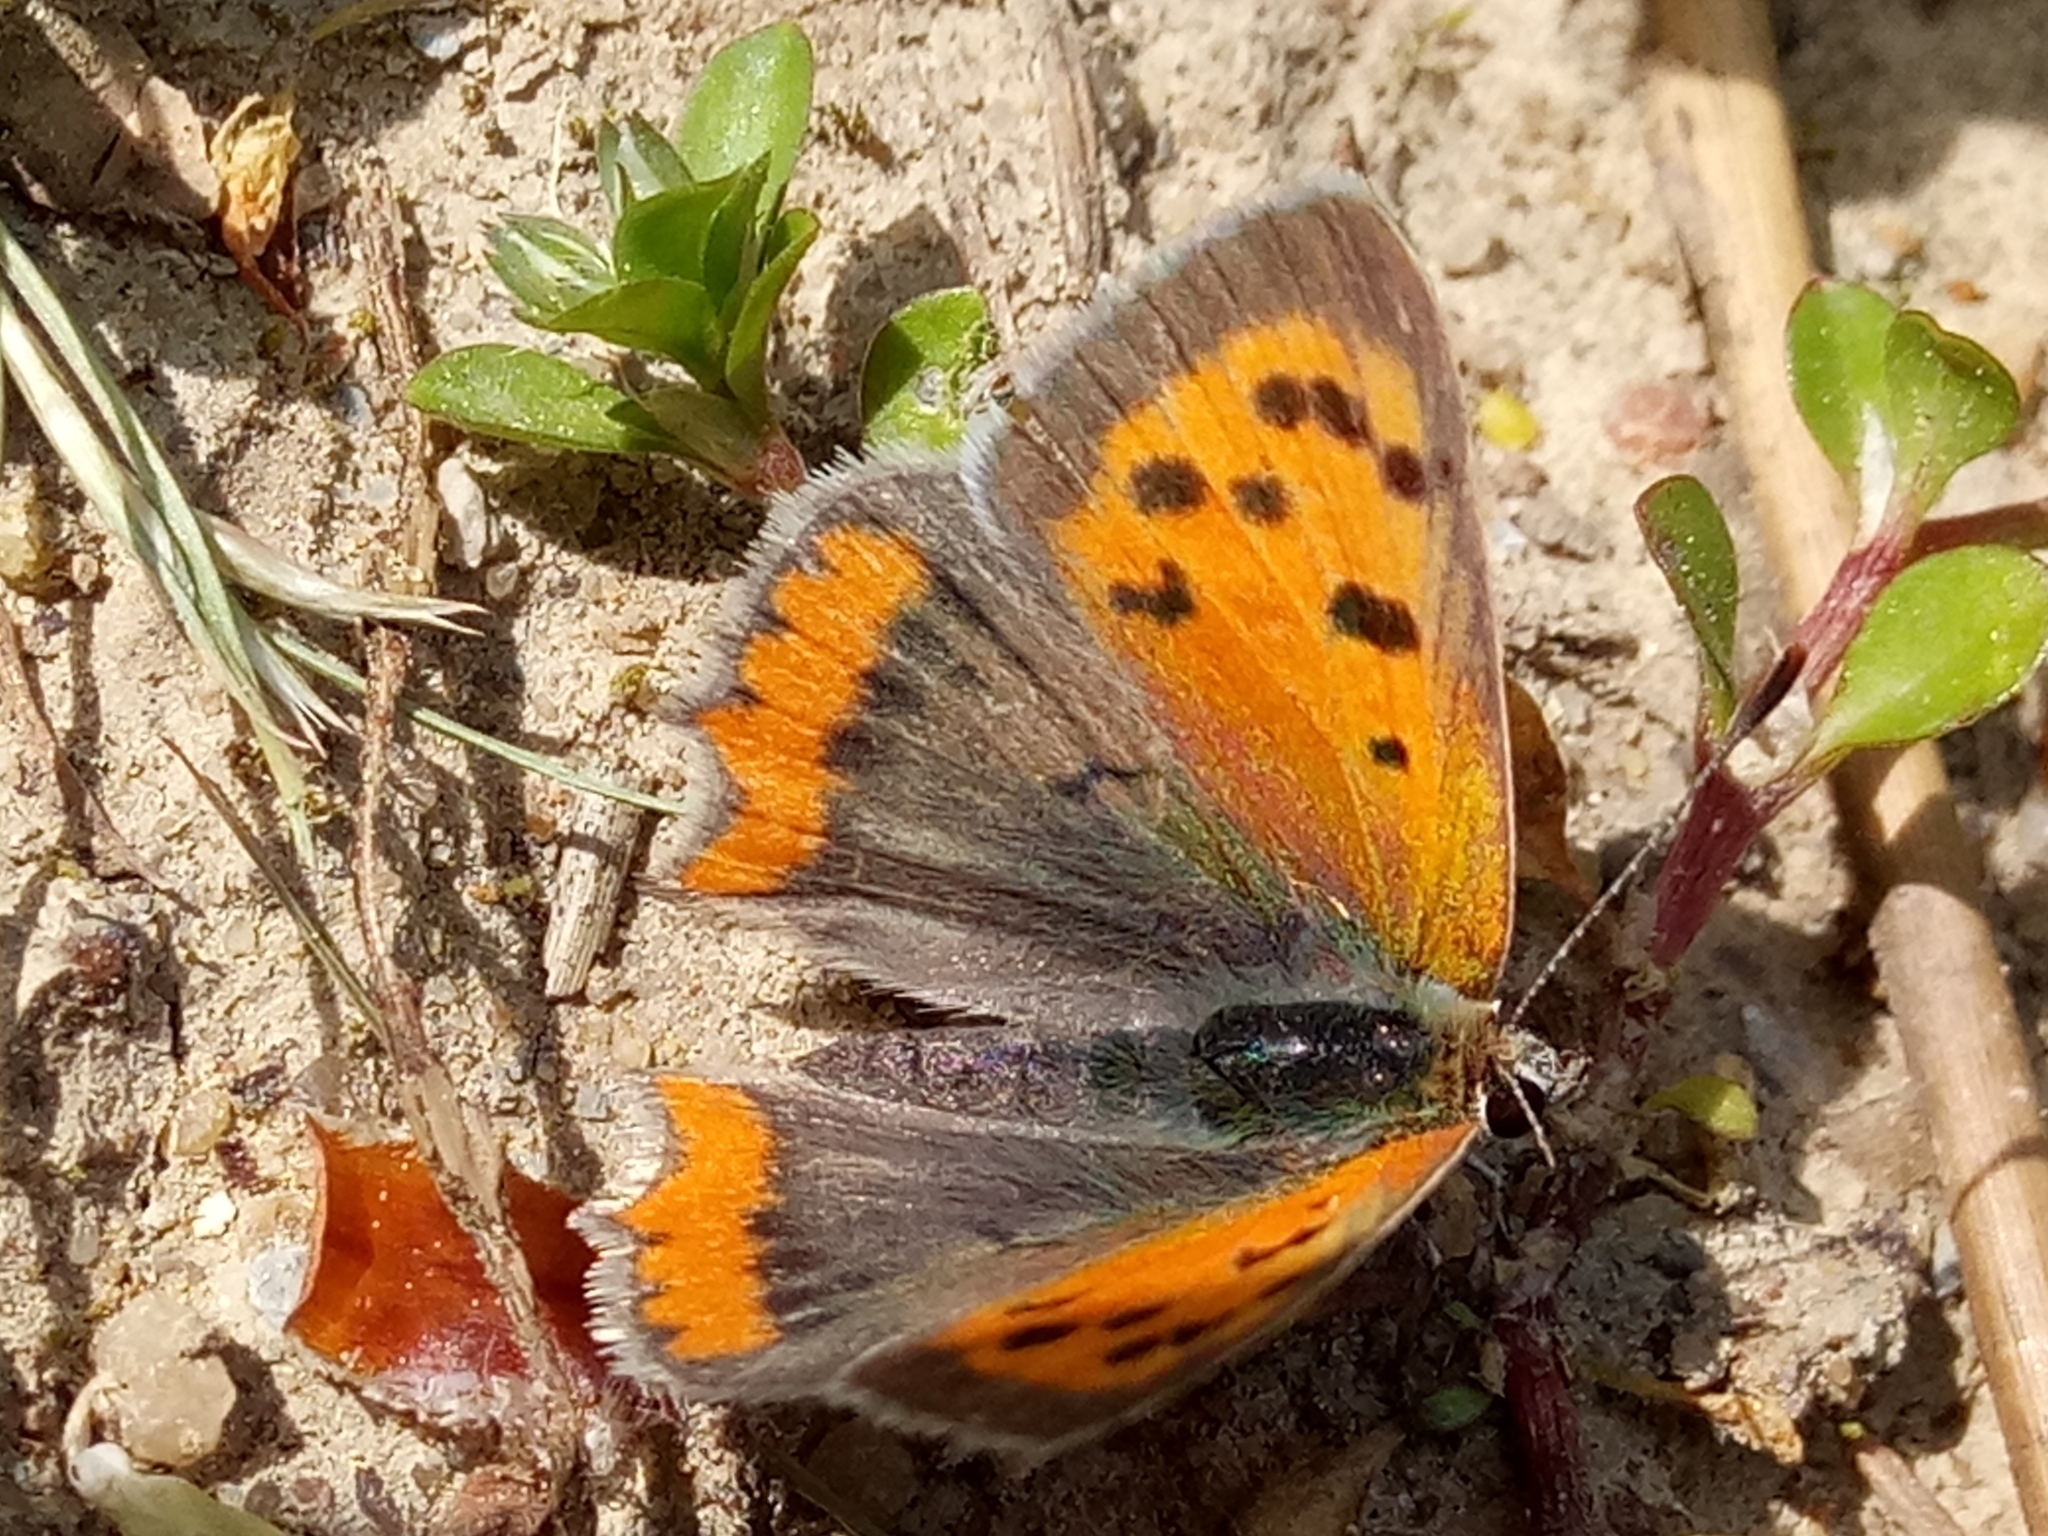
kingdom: Animalia
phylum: Arthropoda
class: Insecta
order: Lepidoptera
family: Lycaenidae
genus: Lycaena
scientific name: Lycaena phlaeas
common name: Small copper
